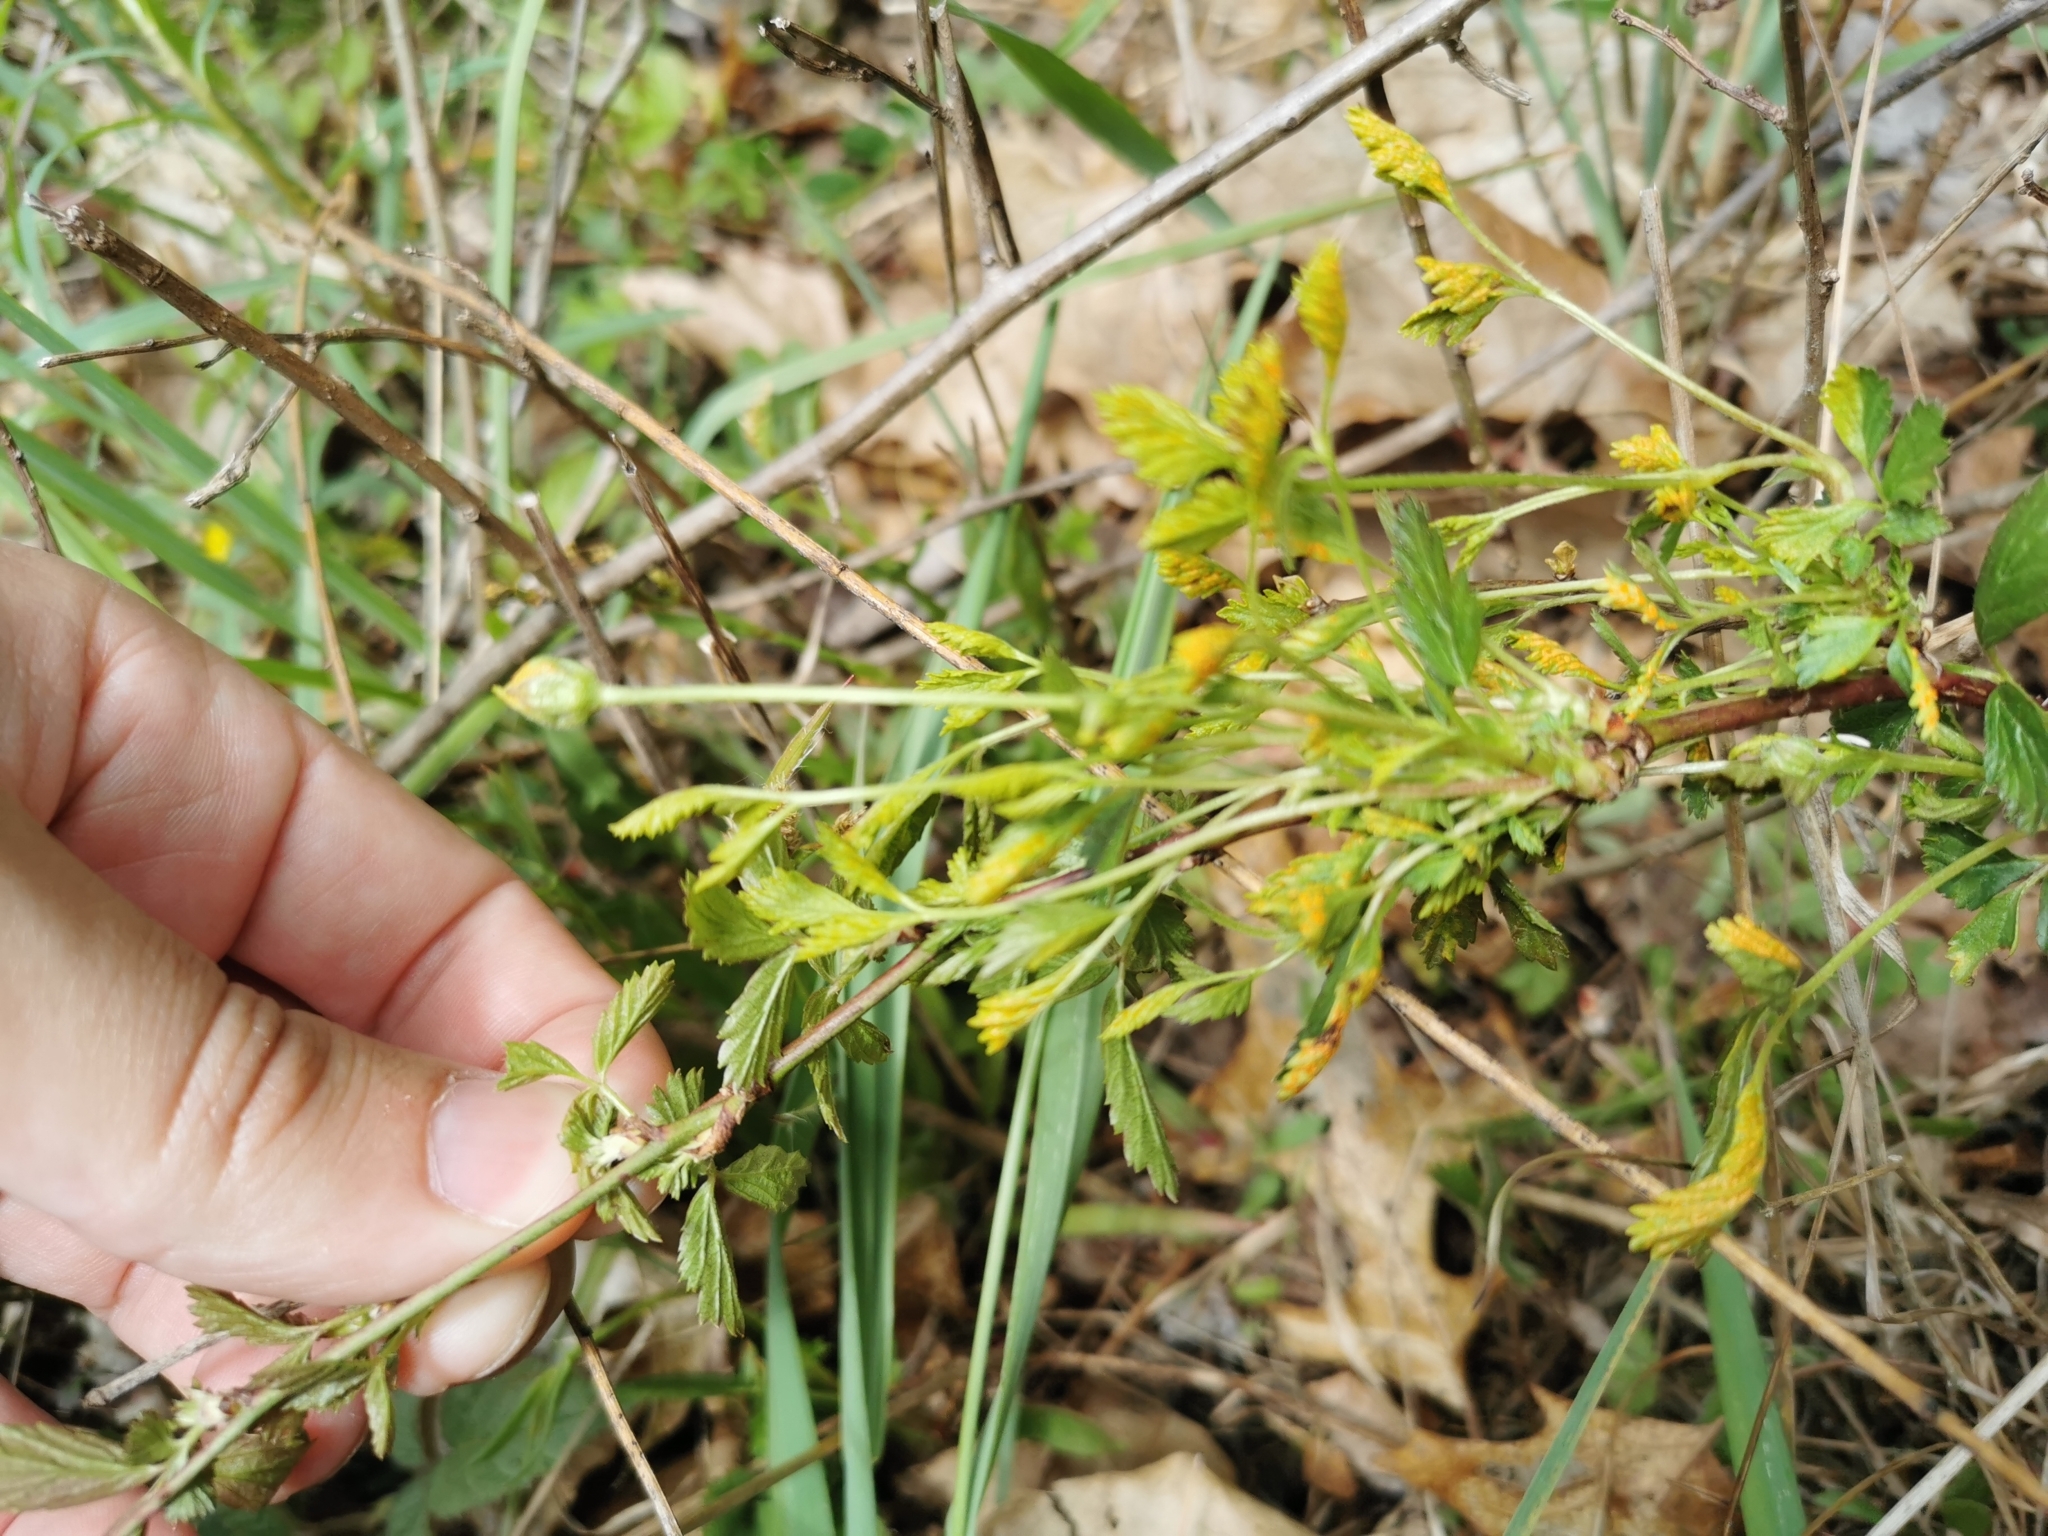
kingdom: Fungi
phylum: Basidiomycota
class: Pucciniomycetes
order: Pucciniales
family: Phragmidiaceae
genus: Arthuriomyces
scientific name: Arthuriomyces peckianus
